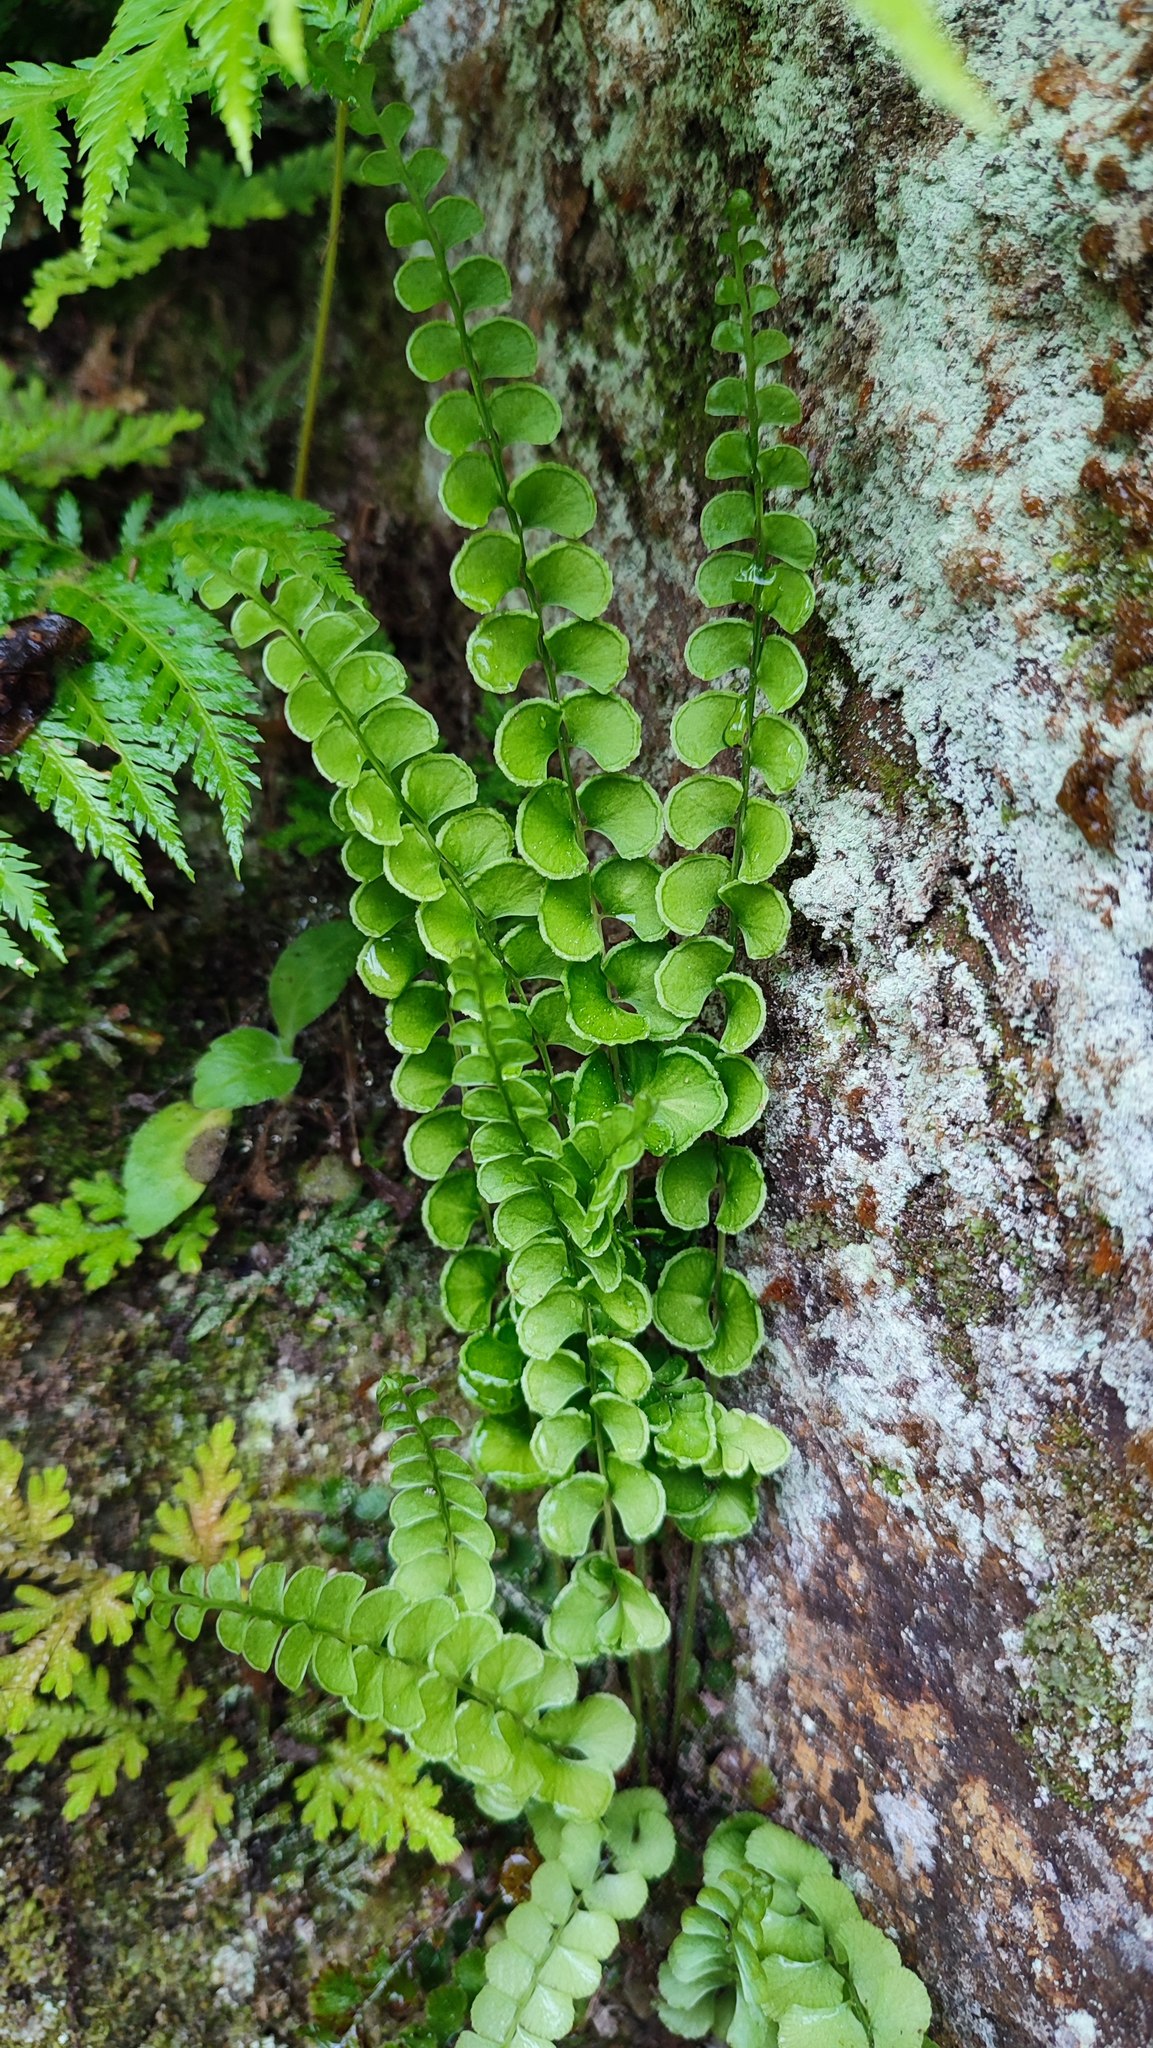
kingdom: Plantae
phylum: Tracheophyta
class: Polypodiopsida
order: Polypodiales
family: Lindsaeaceae
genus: Lindsaea
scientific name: Lindsaea orbiculata
